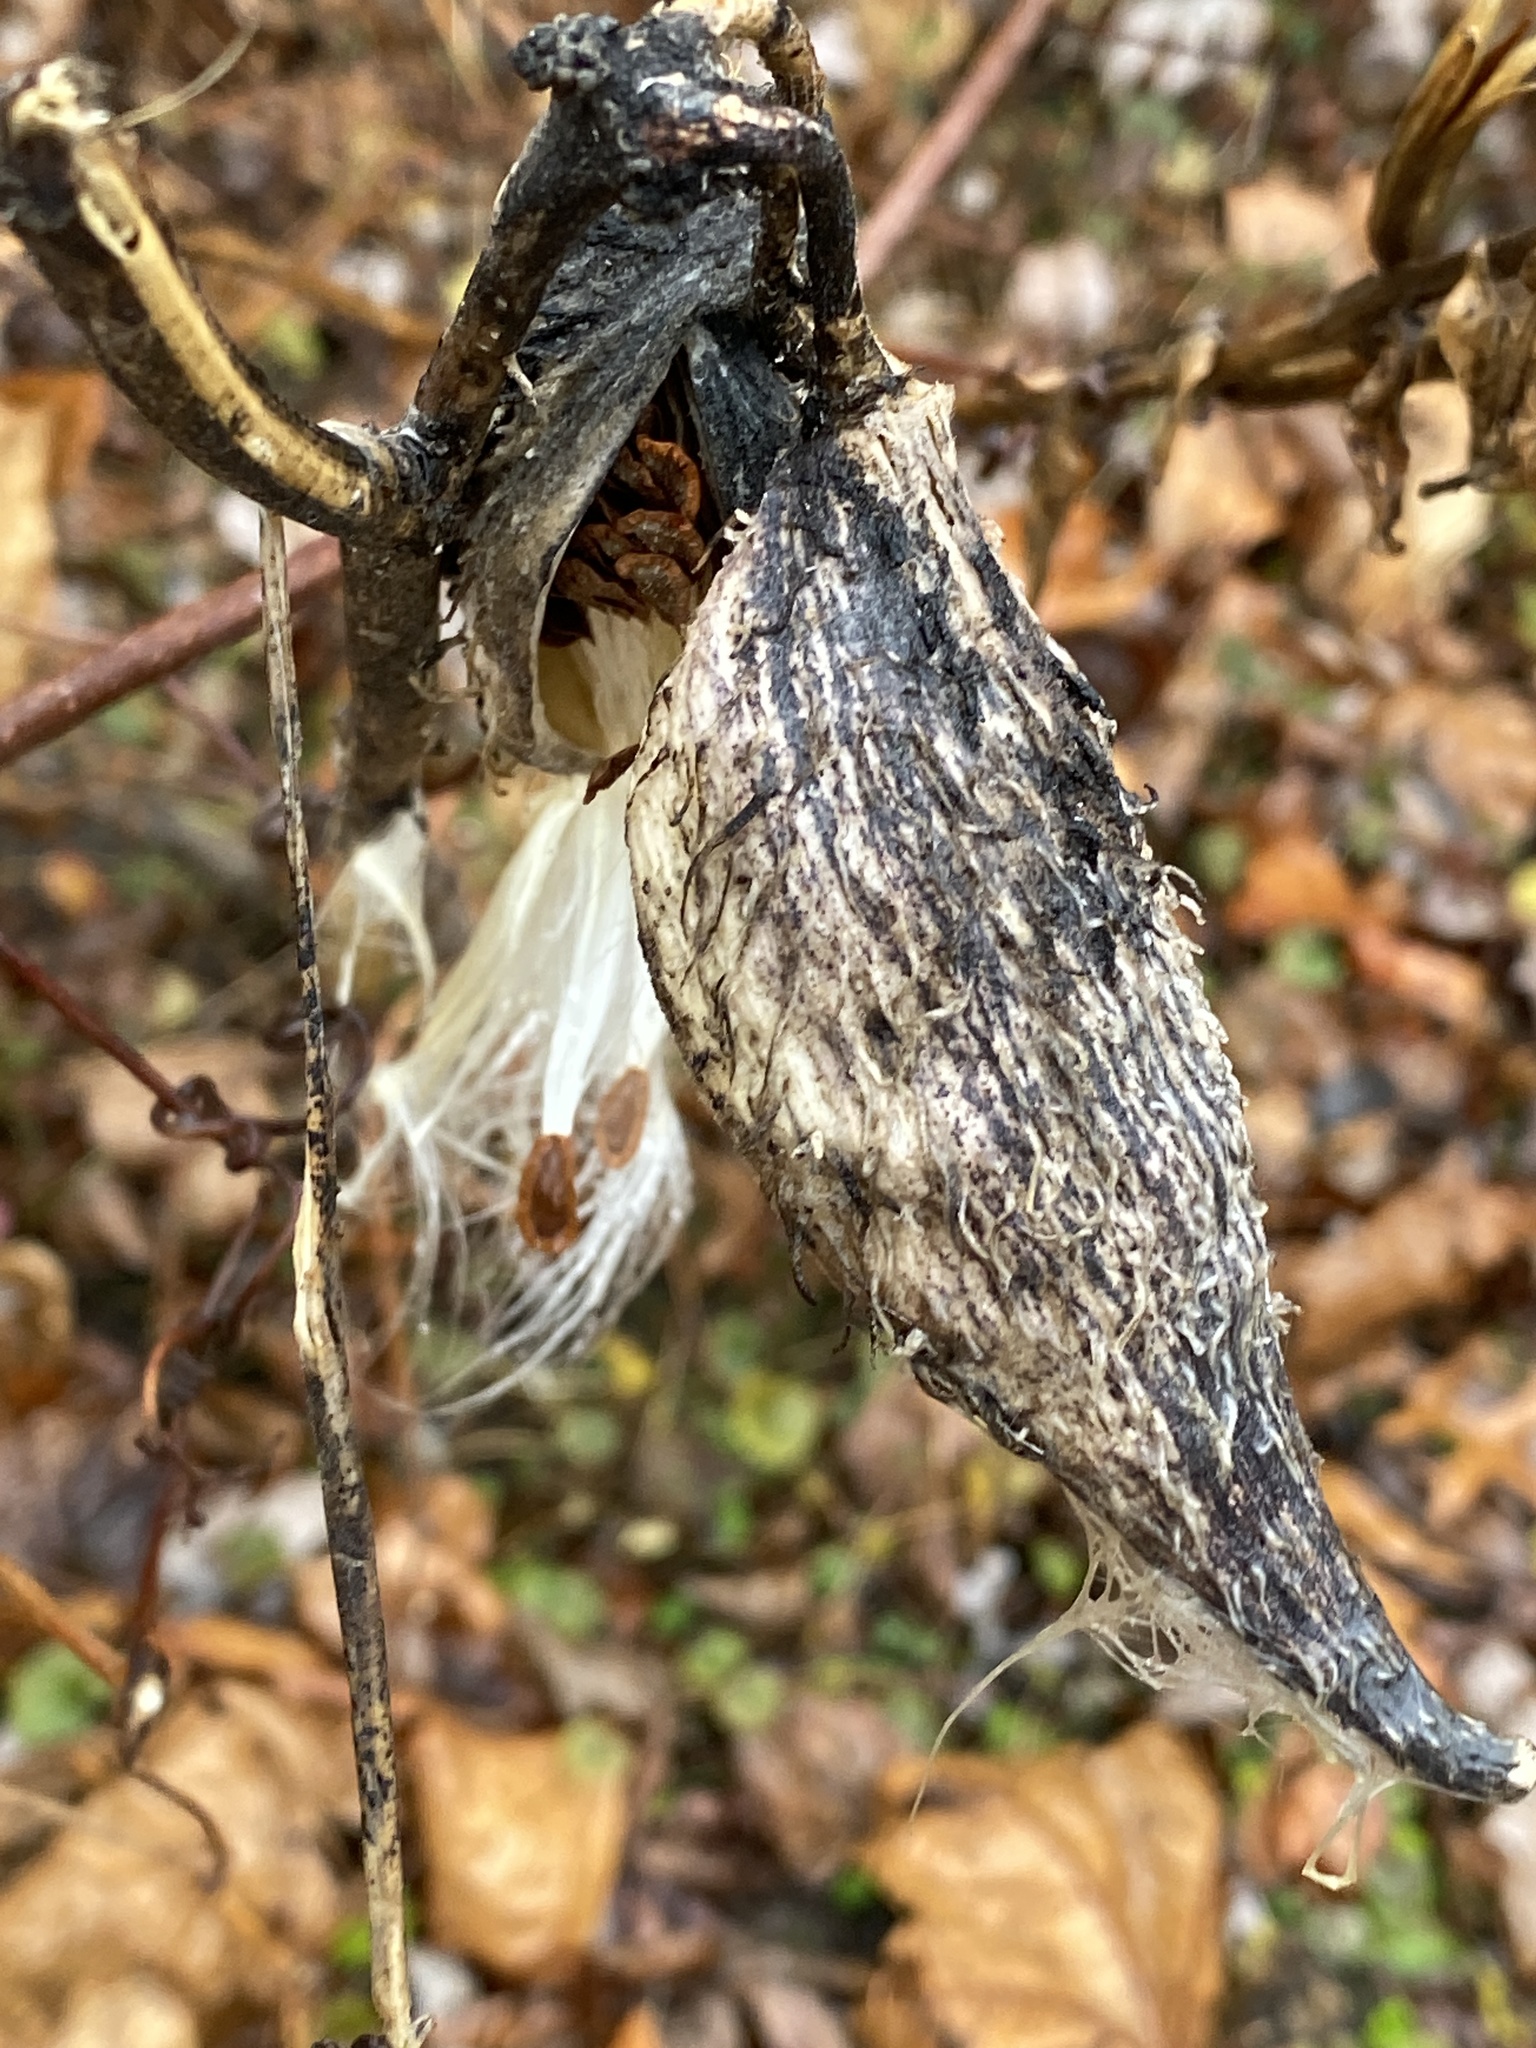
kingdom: Plantae
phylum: Tracheophyta
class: Magnoliopsida
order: Gentianales
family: Apocynaceae
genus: Asclepias
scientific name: Asclepias syriaca
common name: Common milkweed
